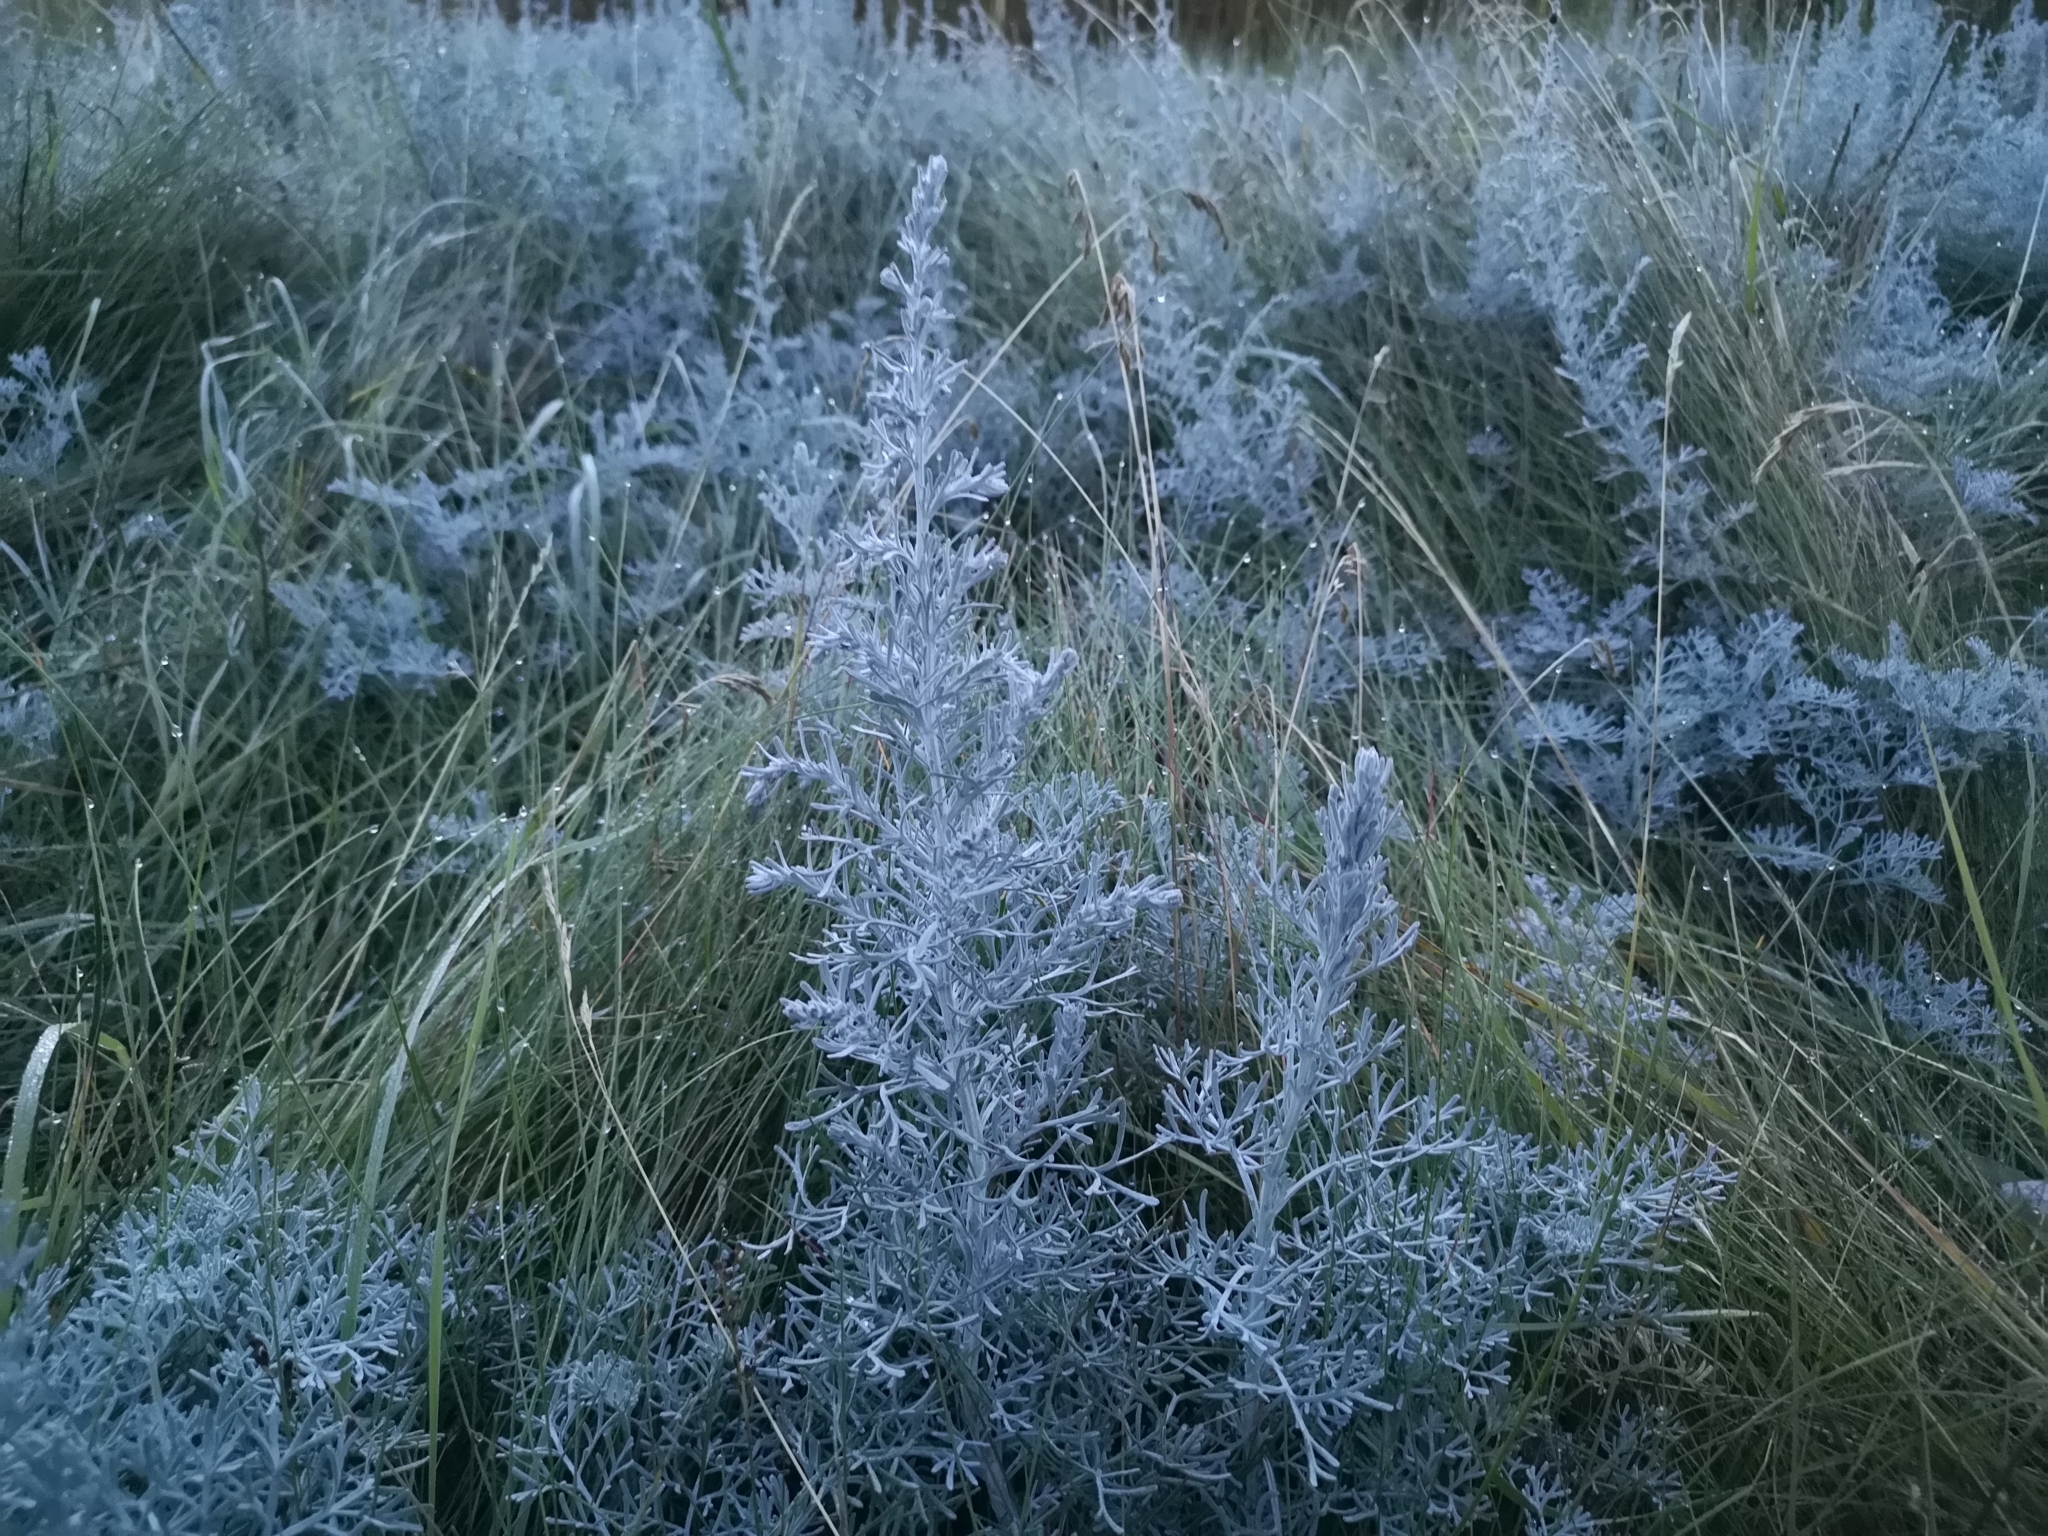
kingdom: Plantae
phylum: Tracheophyta
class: Magnoliopsida
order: Asterales
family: Asteraceae
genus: Artemisia
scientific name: Artemisia maritima
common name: Wormseed
